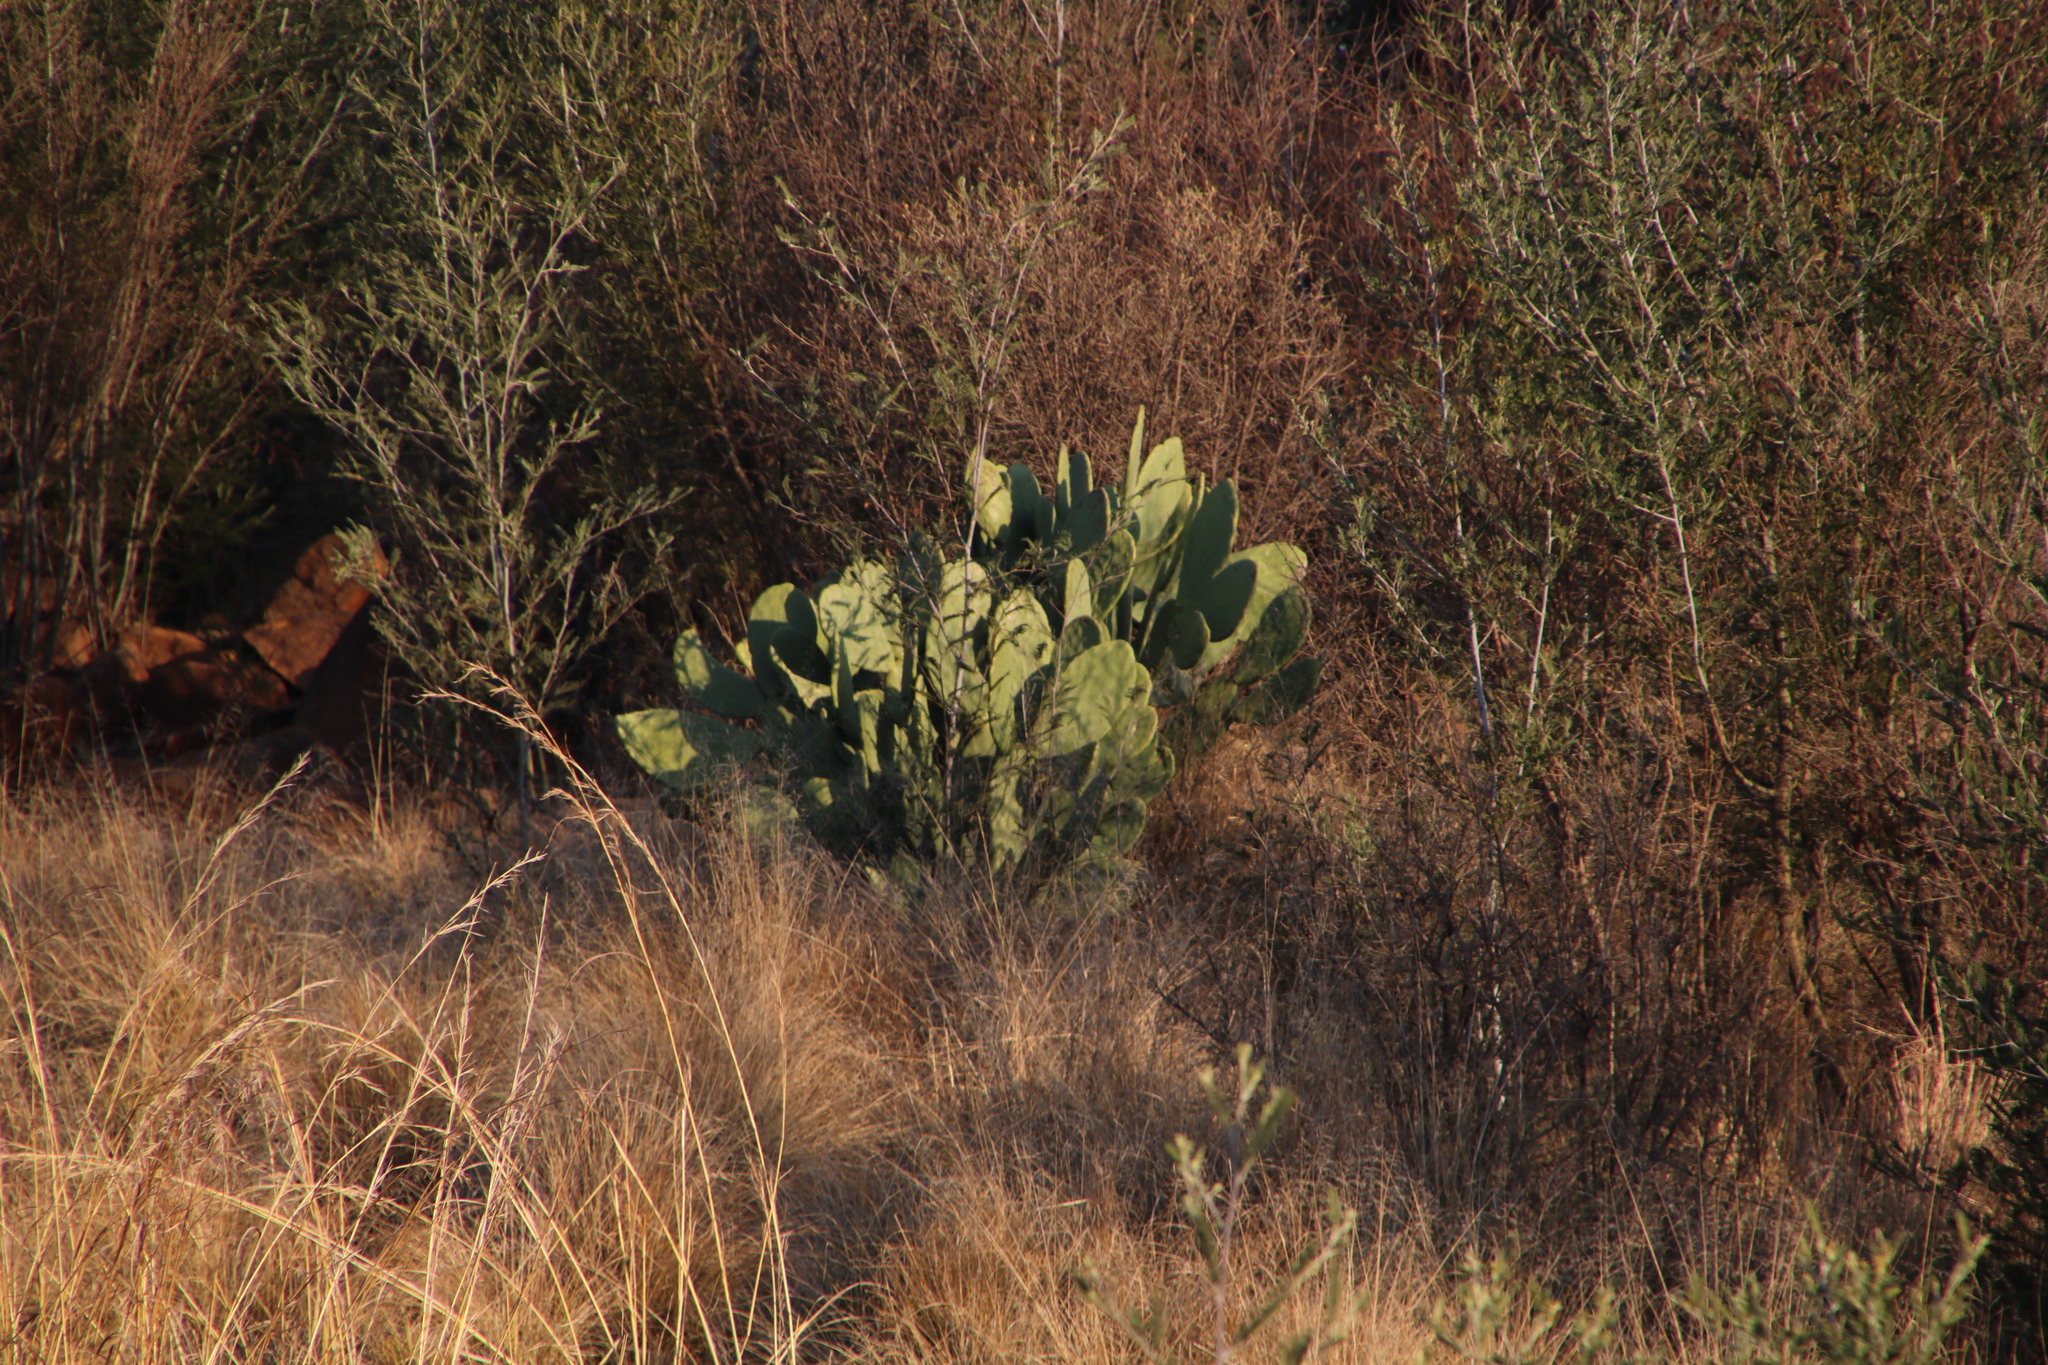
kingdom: Plantae
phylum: Tracheophyta
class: Magnoliopsida
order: Caryophyllales
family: Cactaceae
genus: Opuntia
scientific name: Opuntia ficus-indica
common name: Barbary fig
